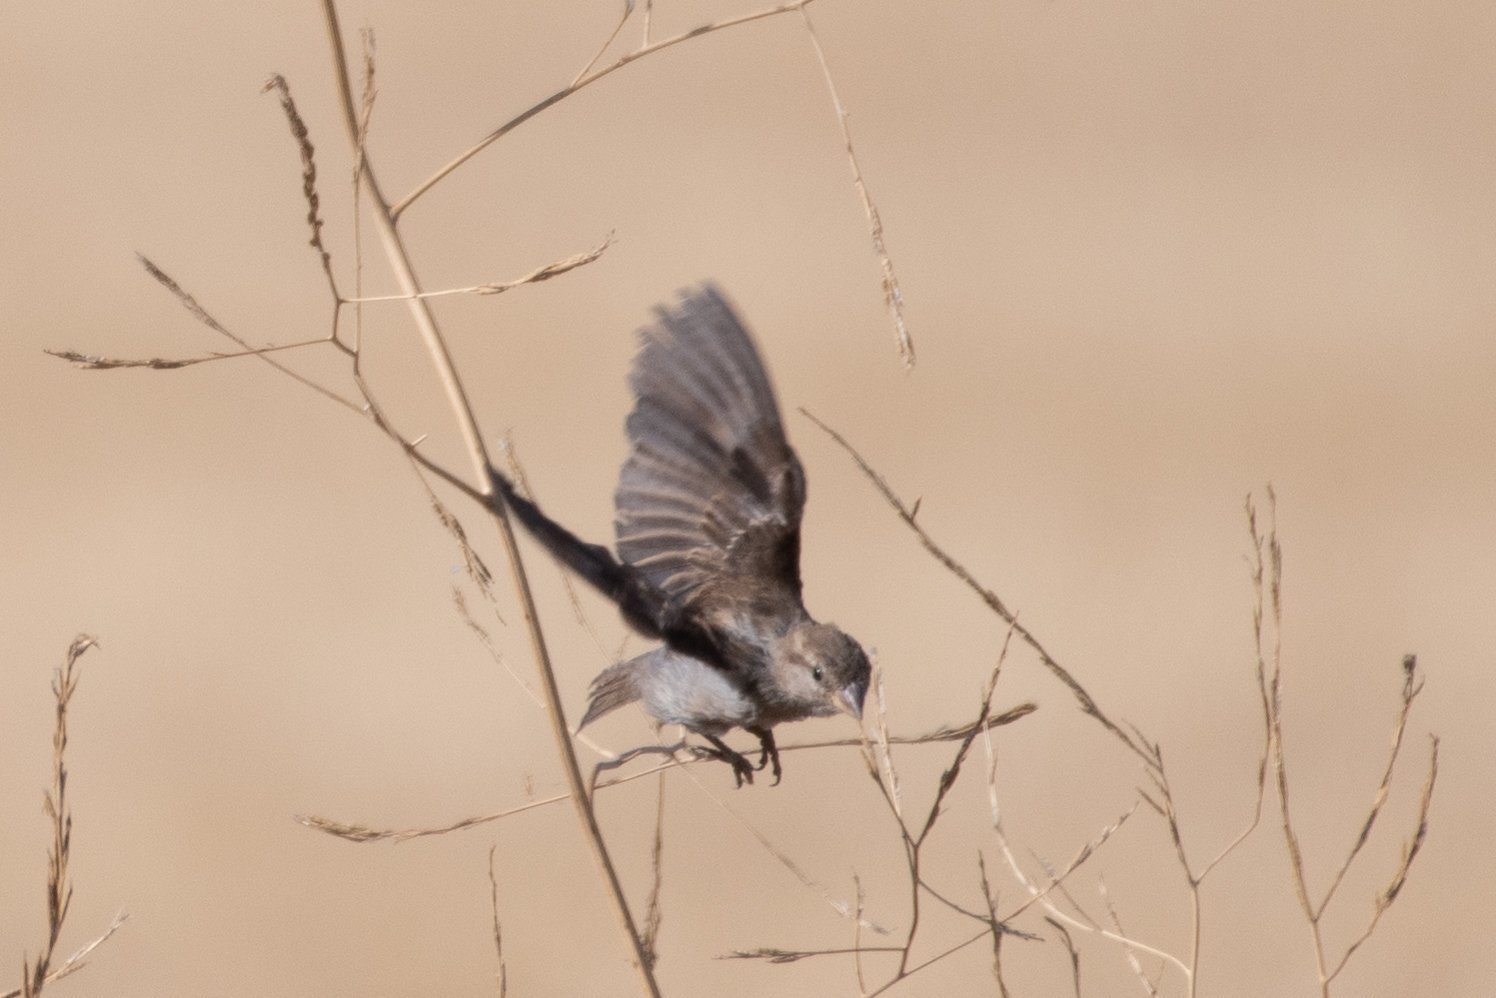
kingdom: Animalia
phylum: Chordata
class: Aves
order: Passeriformes
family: Passeridae
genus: Passer
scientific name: Passer domesticus
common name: House sparrow
